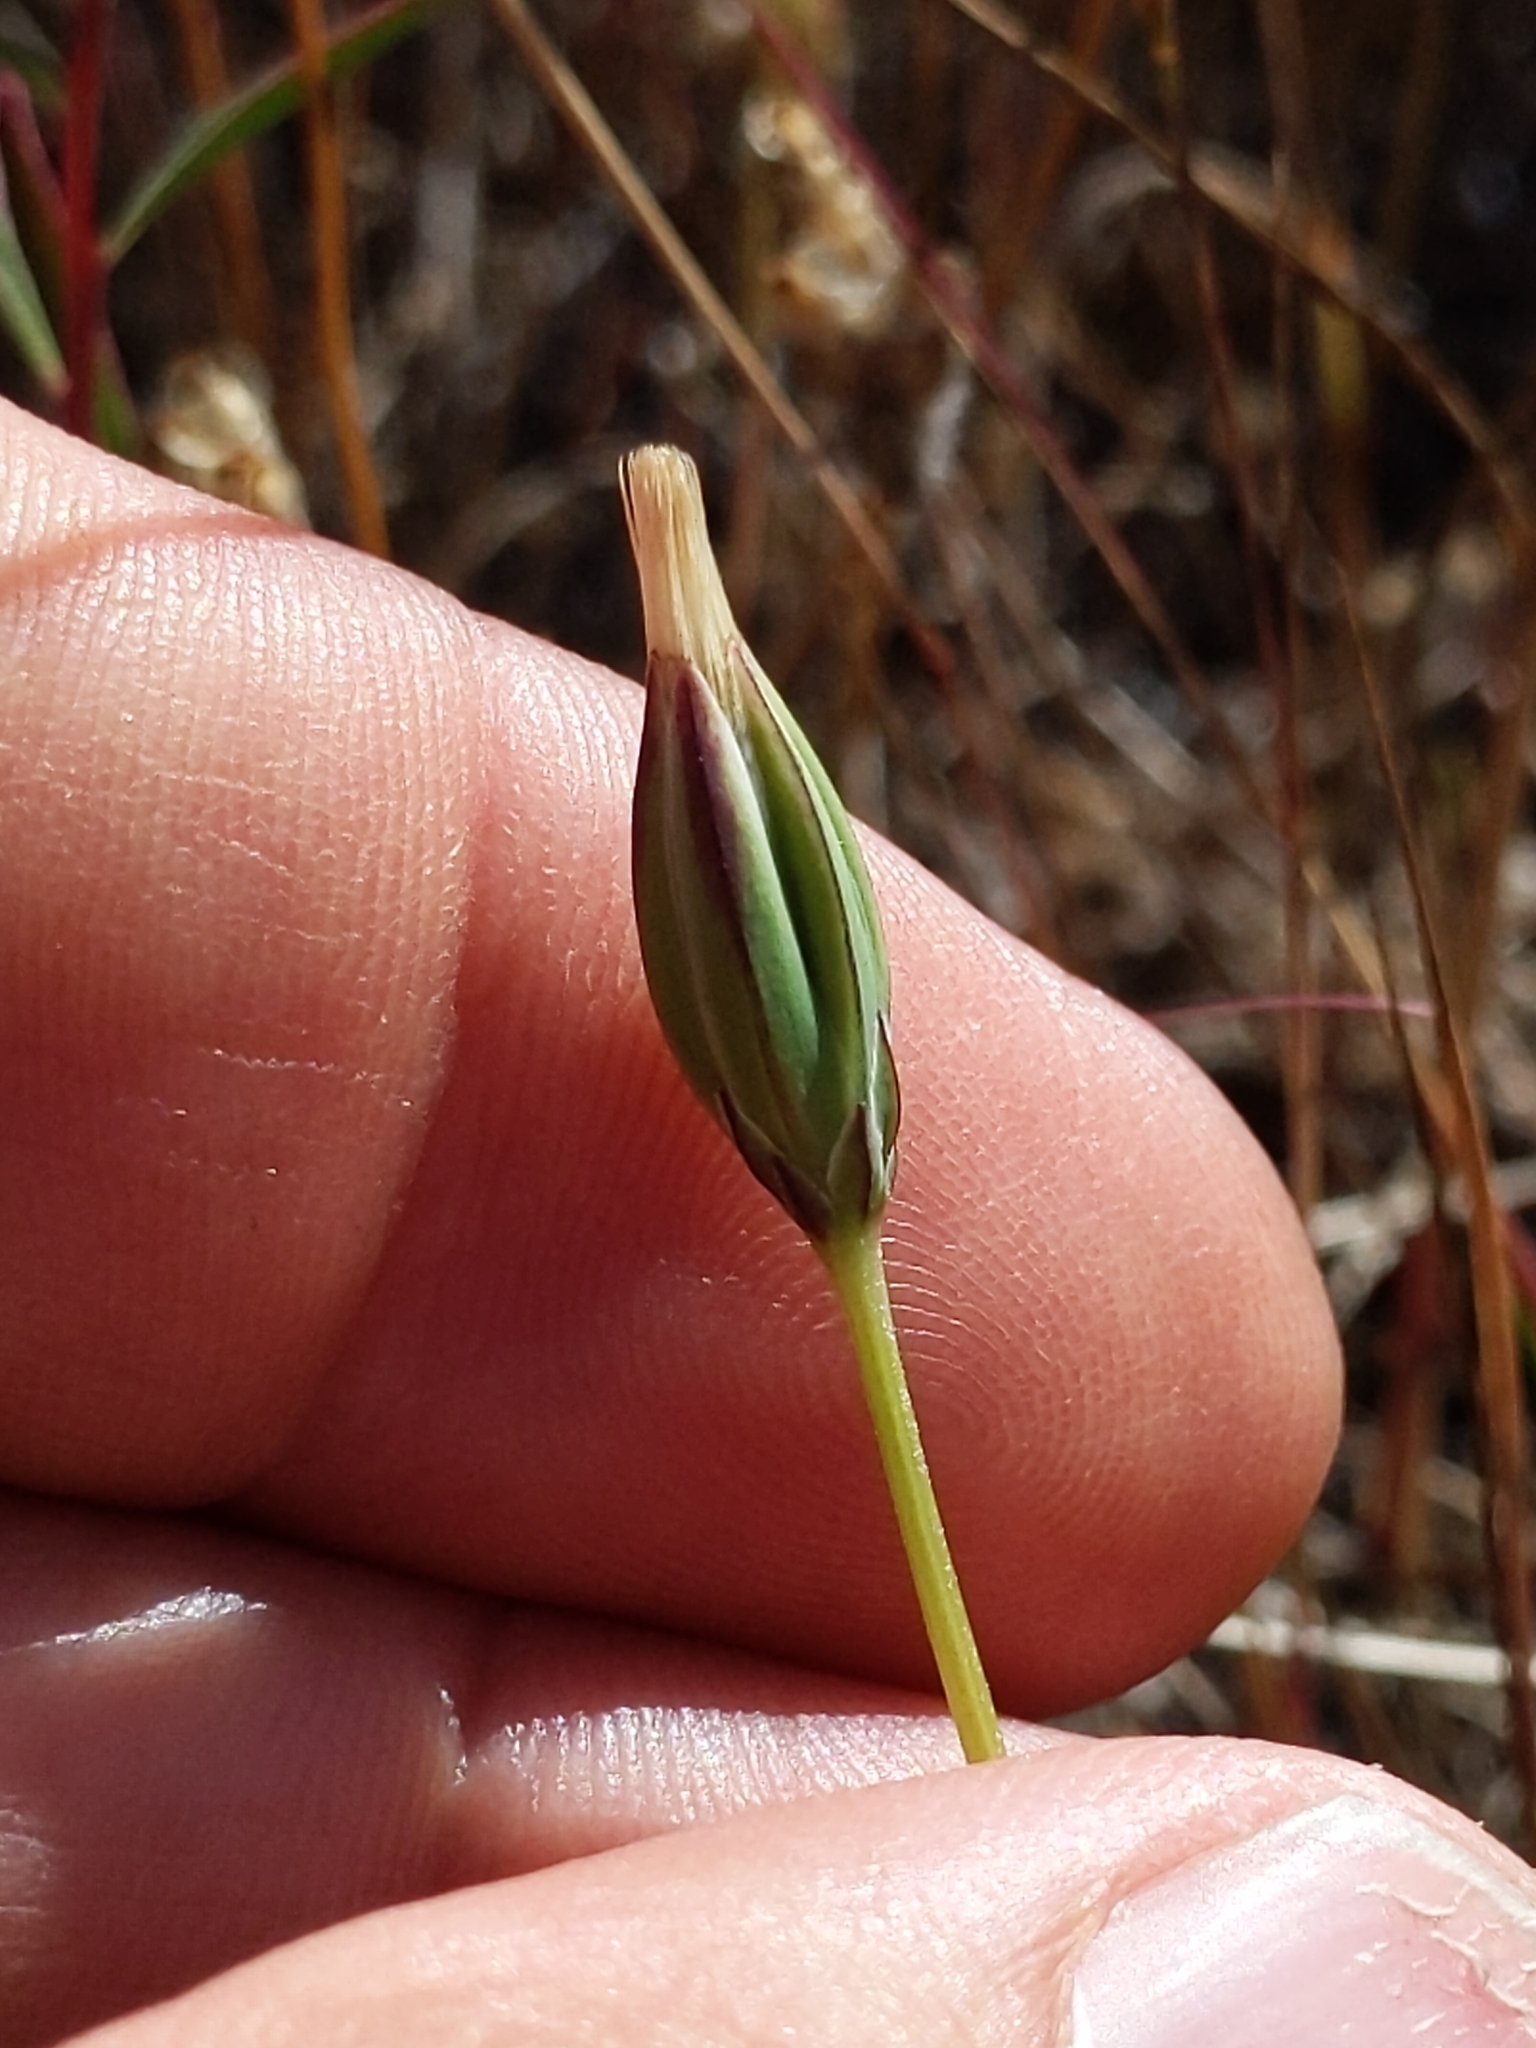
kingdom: Plantae
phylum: Tracheophyta
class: Magnoliopsida
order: Asterales
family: Asteraceae
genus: Microseris
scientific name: Microseris douglasii
